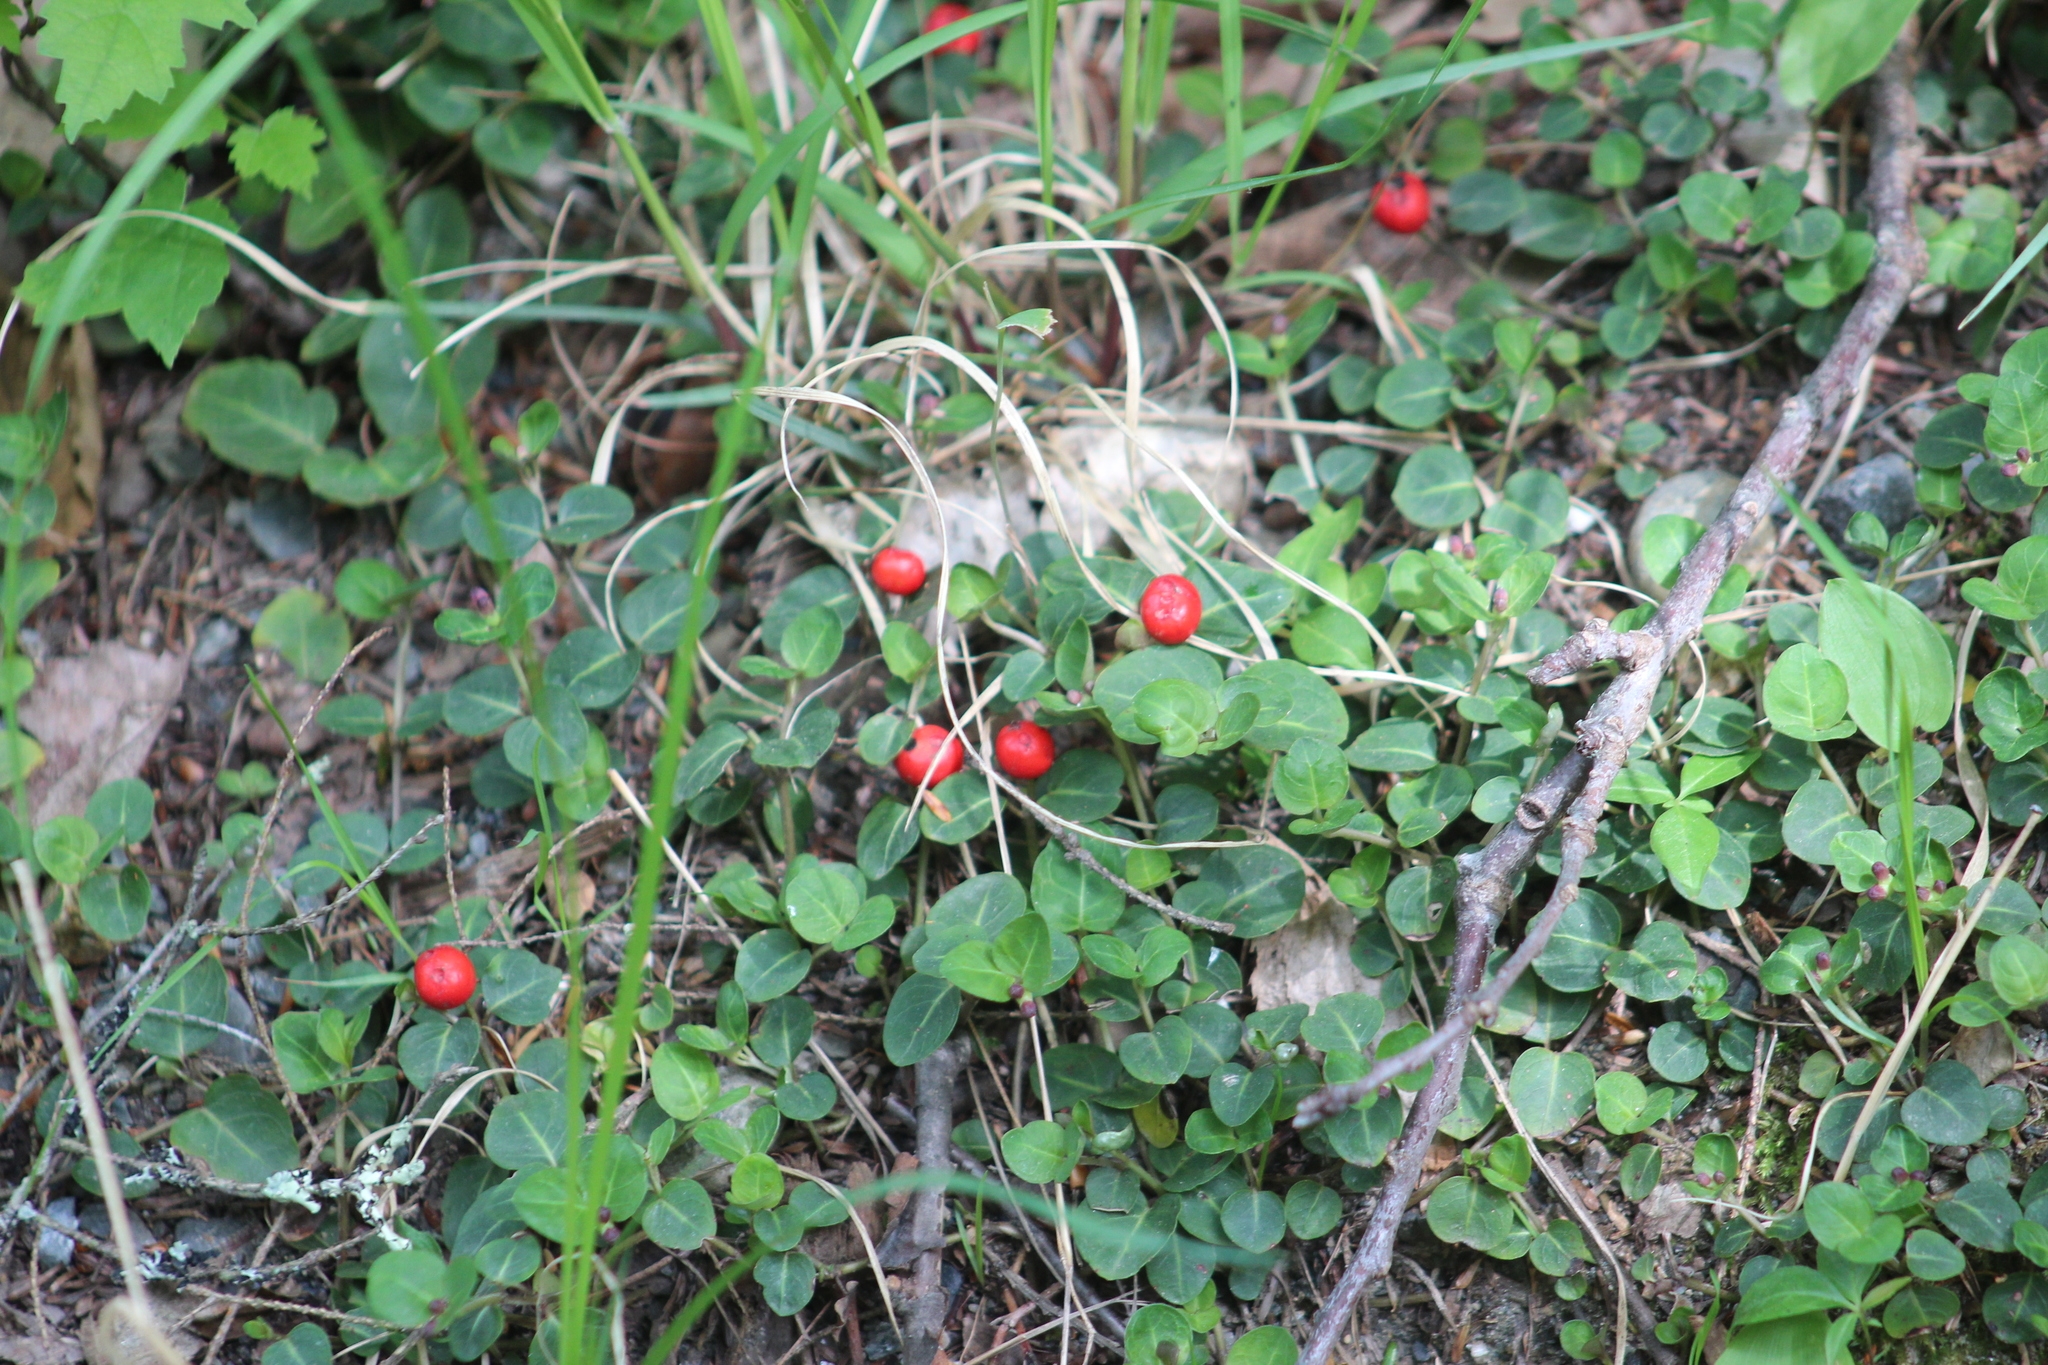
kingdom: Plantae
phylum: Tracheophyta
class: Magnoliopsida
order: Gentianales
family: Rubiaceae
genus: Mitchella
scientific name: Mitchella repens
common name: Partridge-berry
